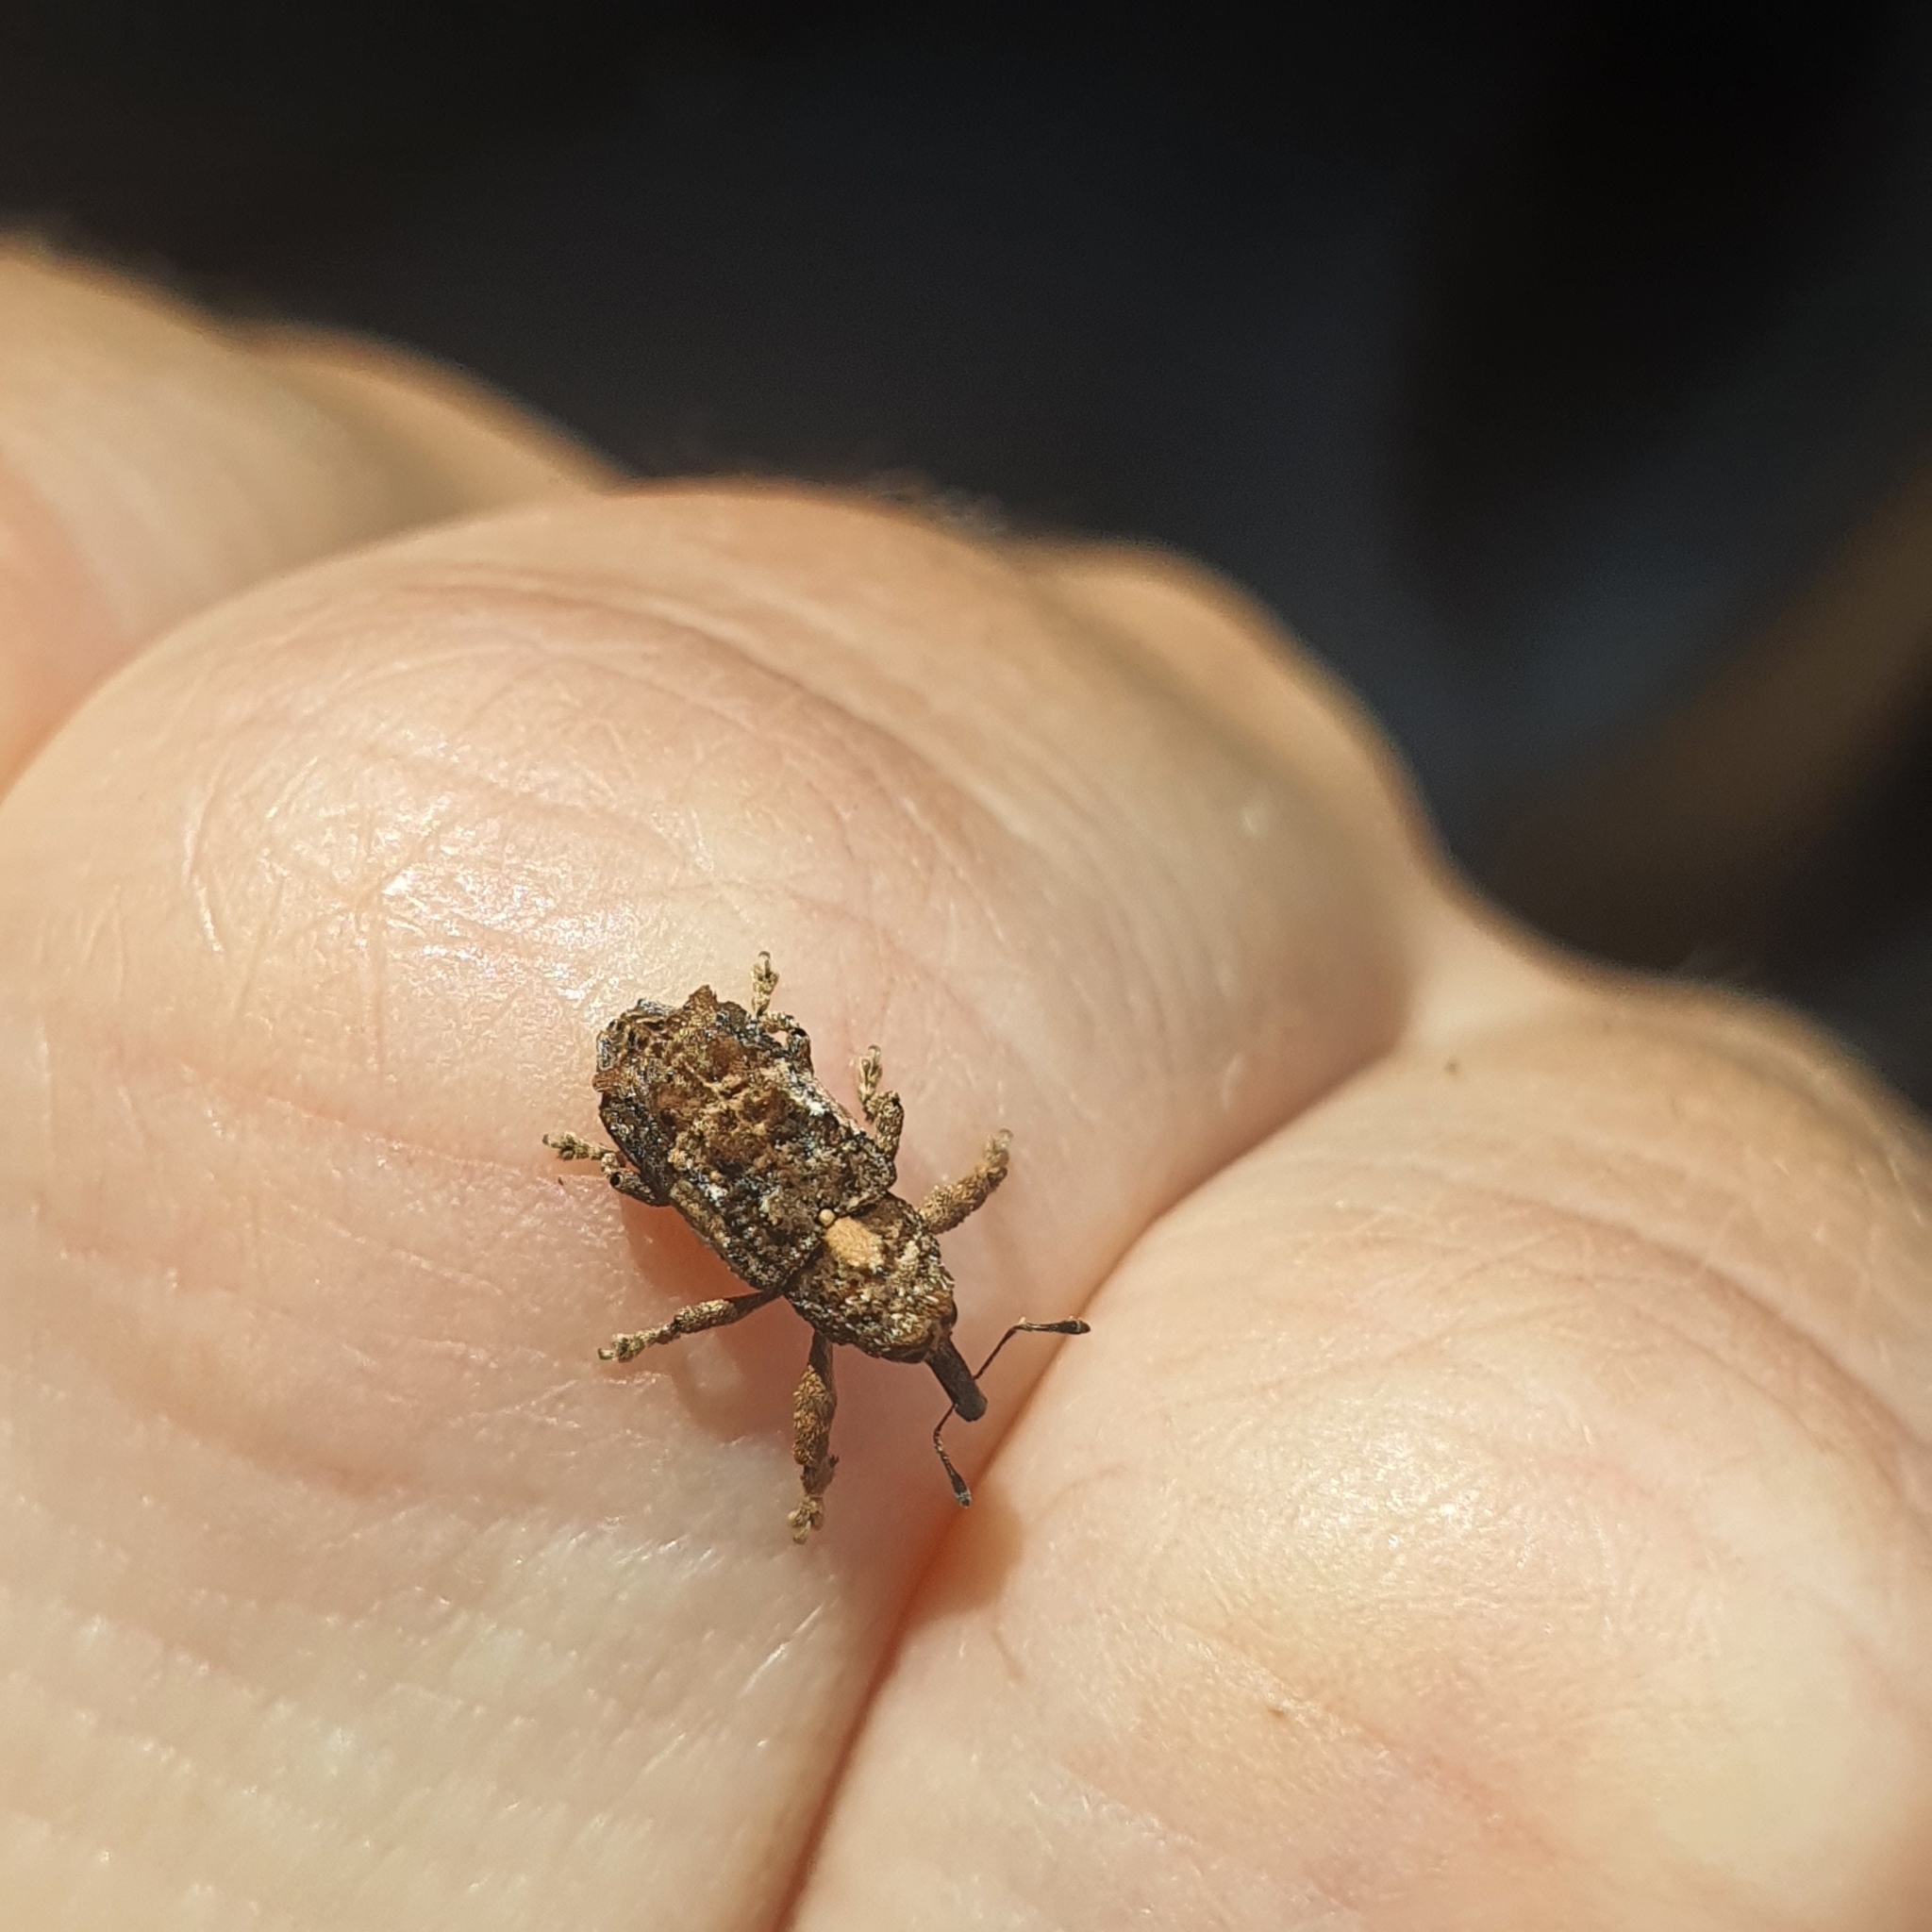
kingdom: Animalia
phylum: Arthropoda
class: Insecta
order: Coleoptera
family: Curculionidae
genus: Orthorhinus
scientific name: Orthorhinus klugii
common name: Vine weevil
